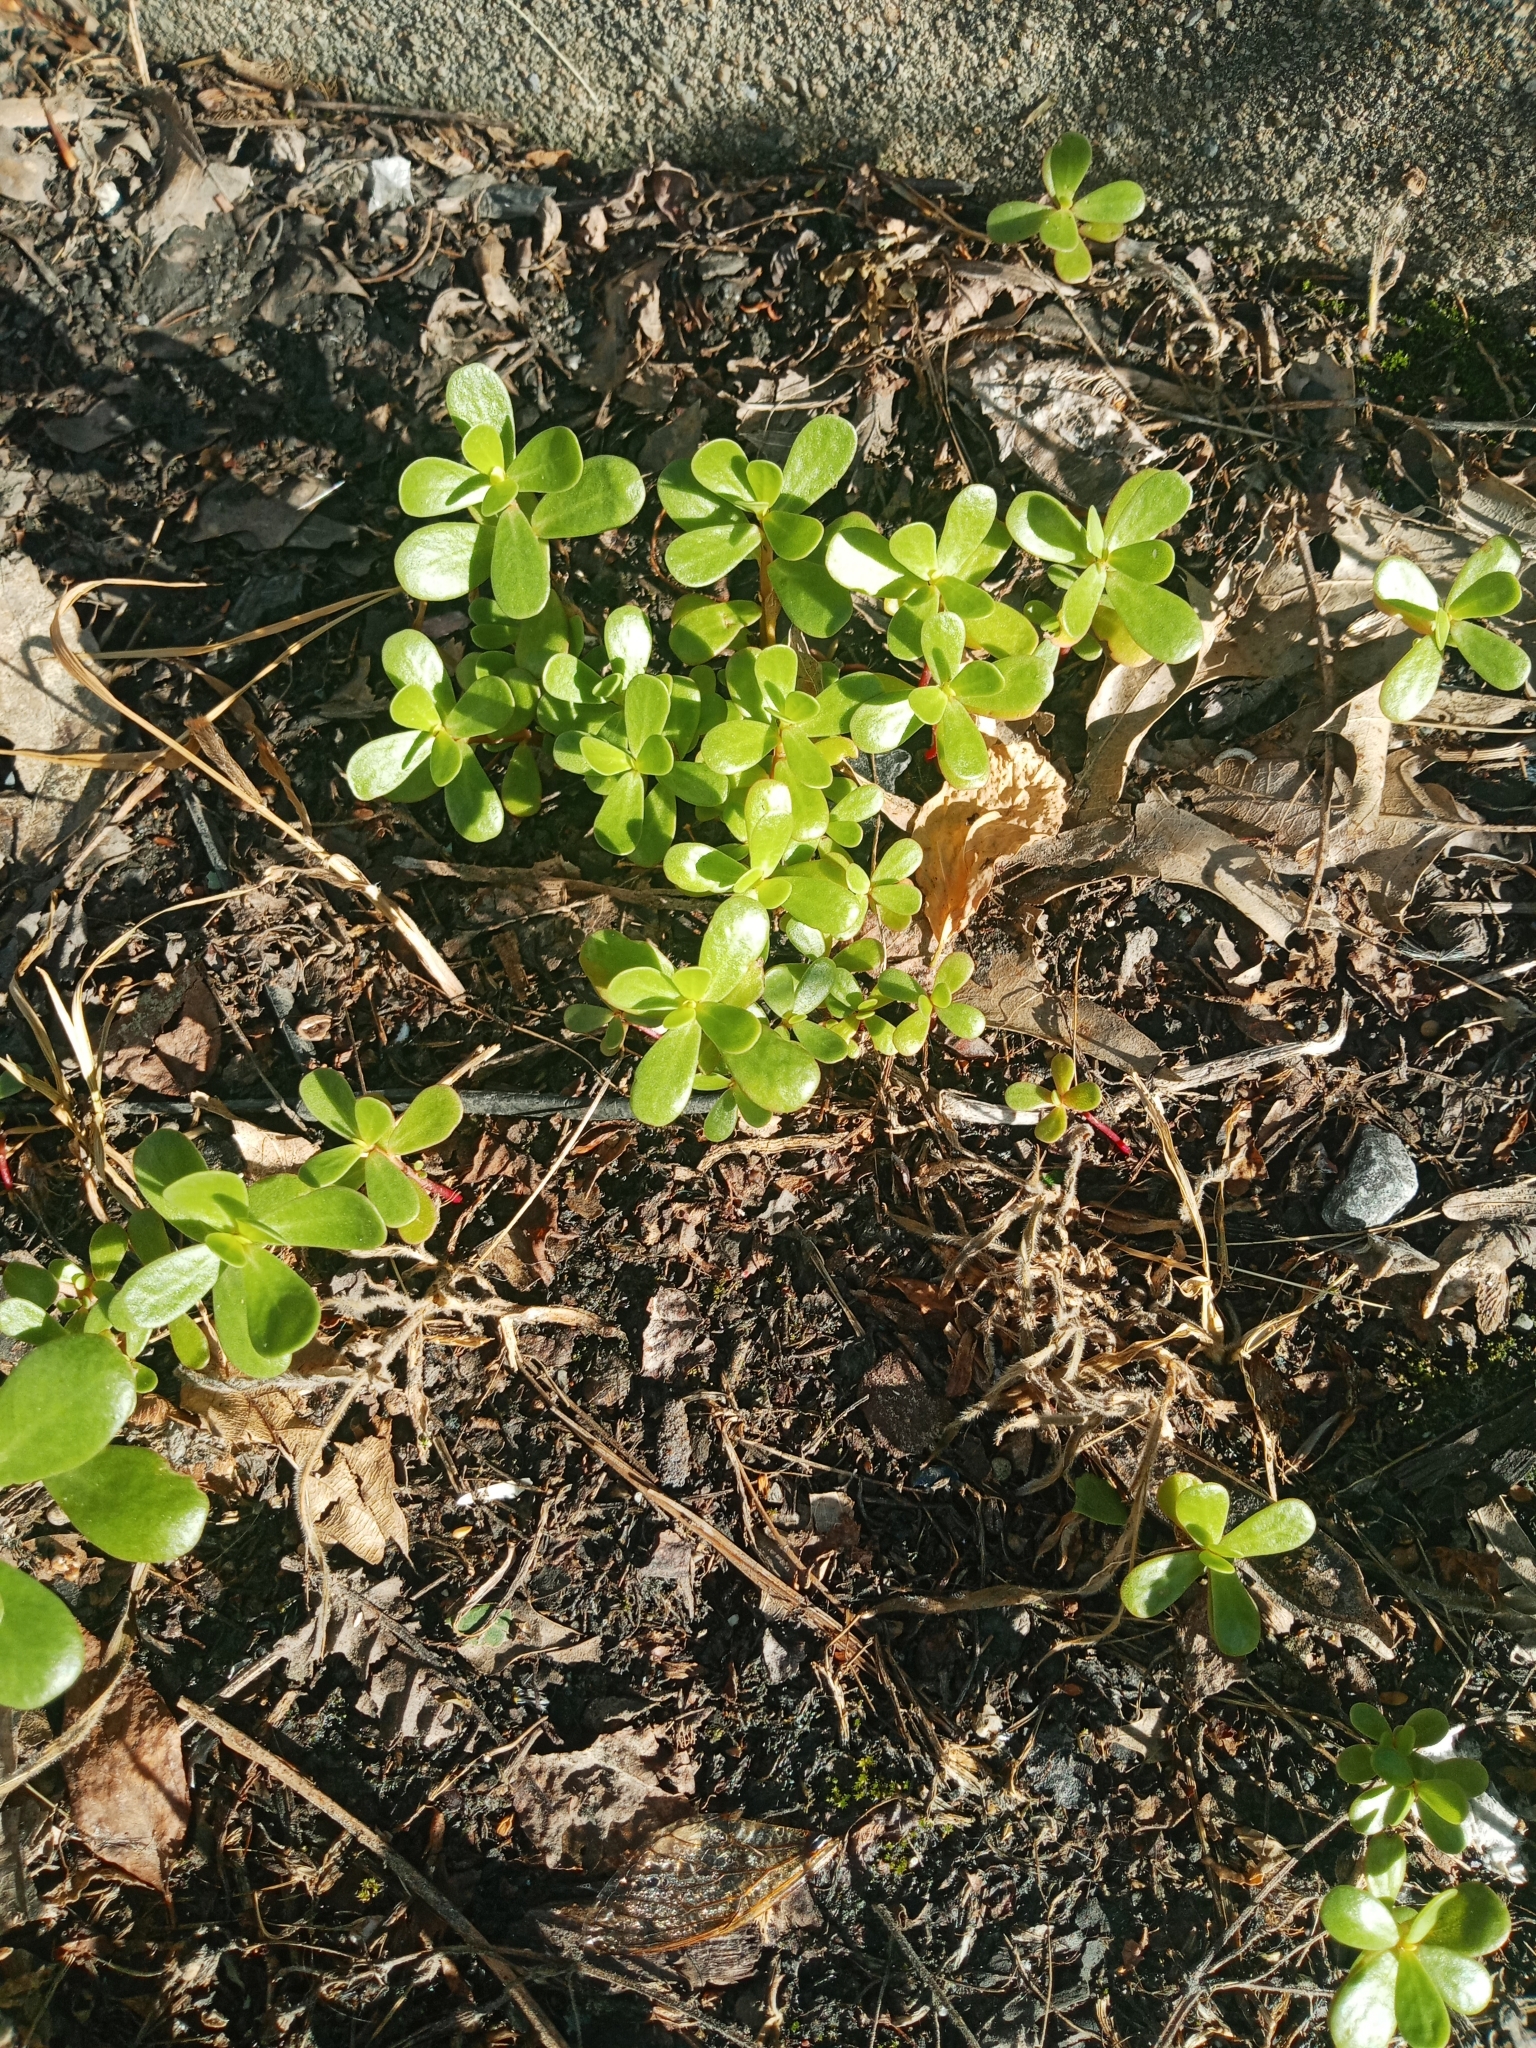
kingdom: Plantae
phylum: Tracheophyta
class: Magnoliopsida
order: Caryophyllales
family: Portulacaceae
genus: Portulaca
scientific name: Portulaca oleracea
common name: Common purslane
